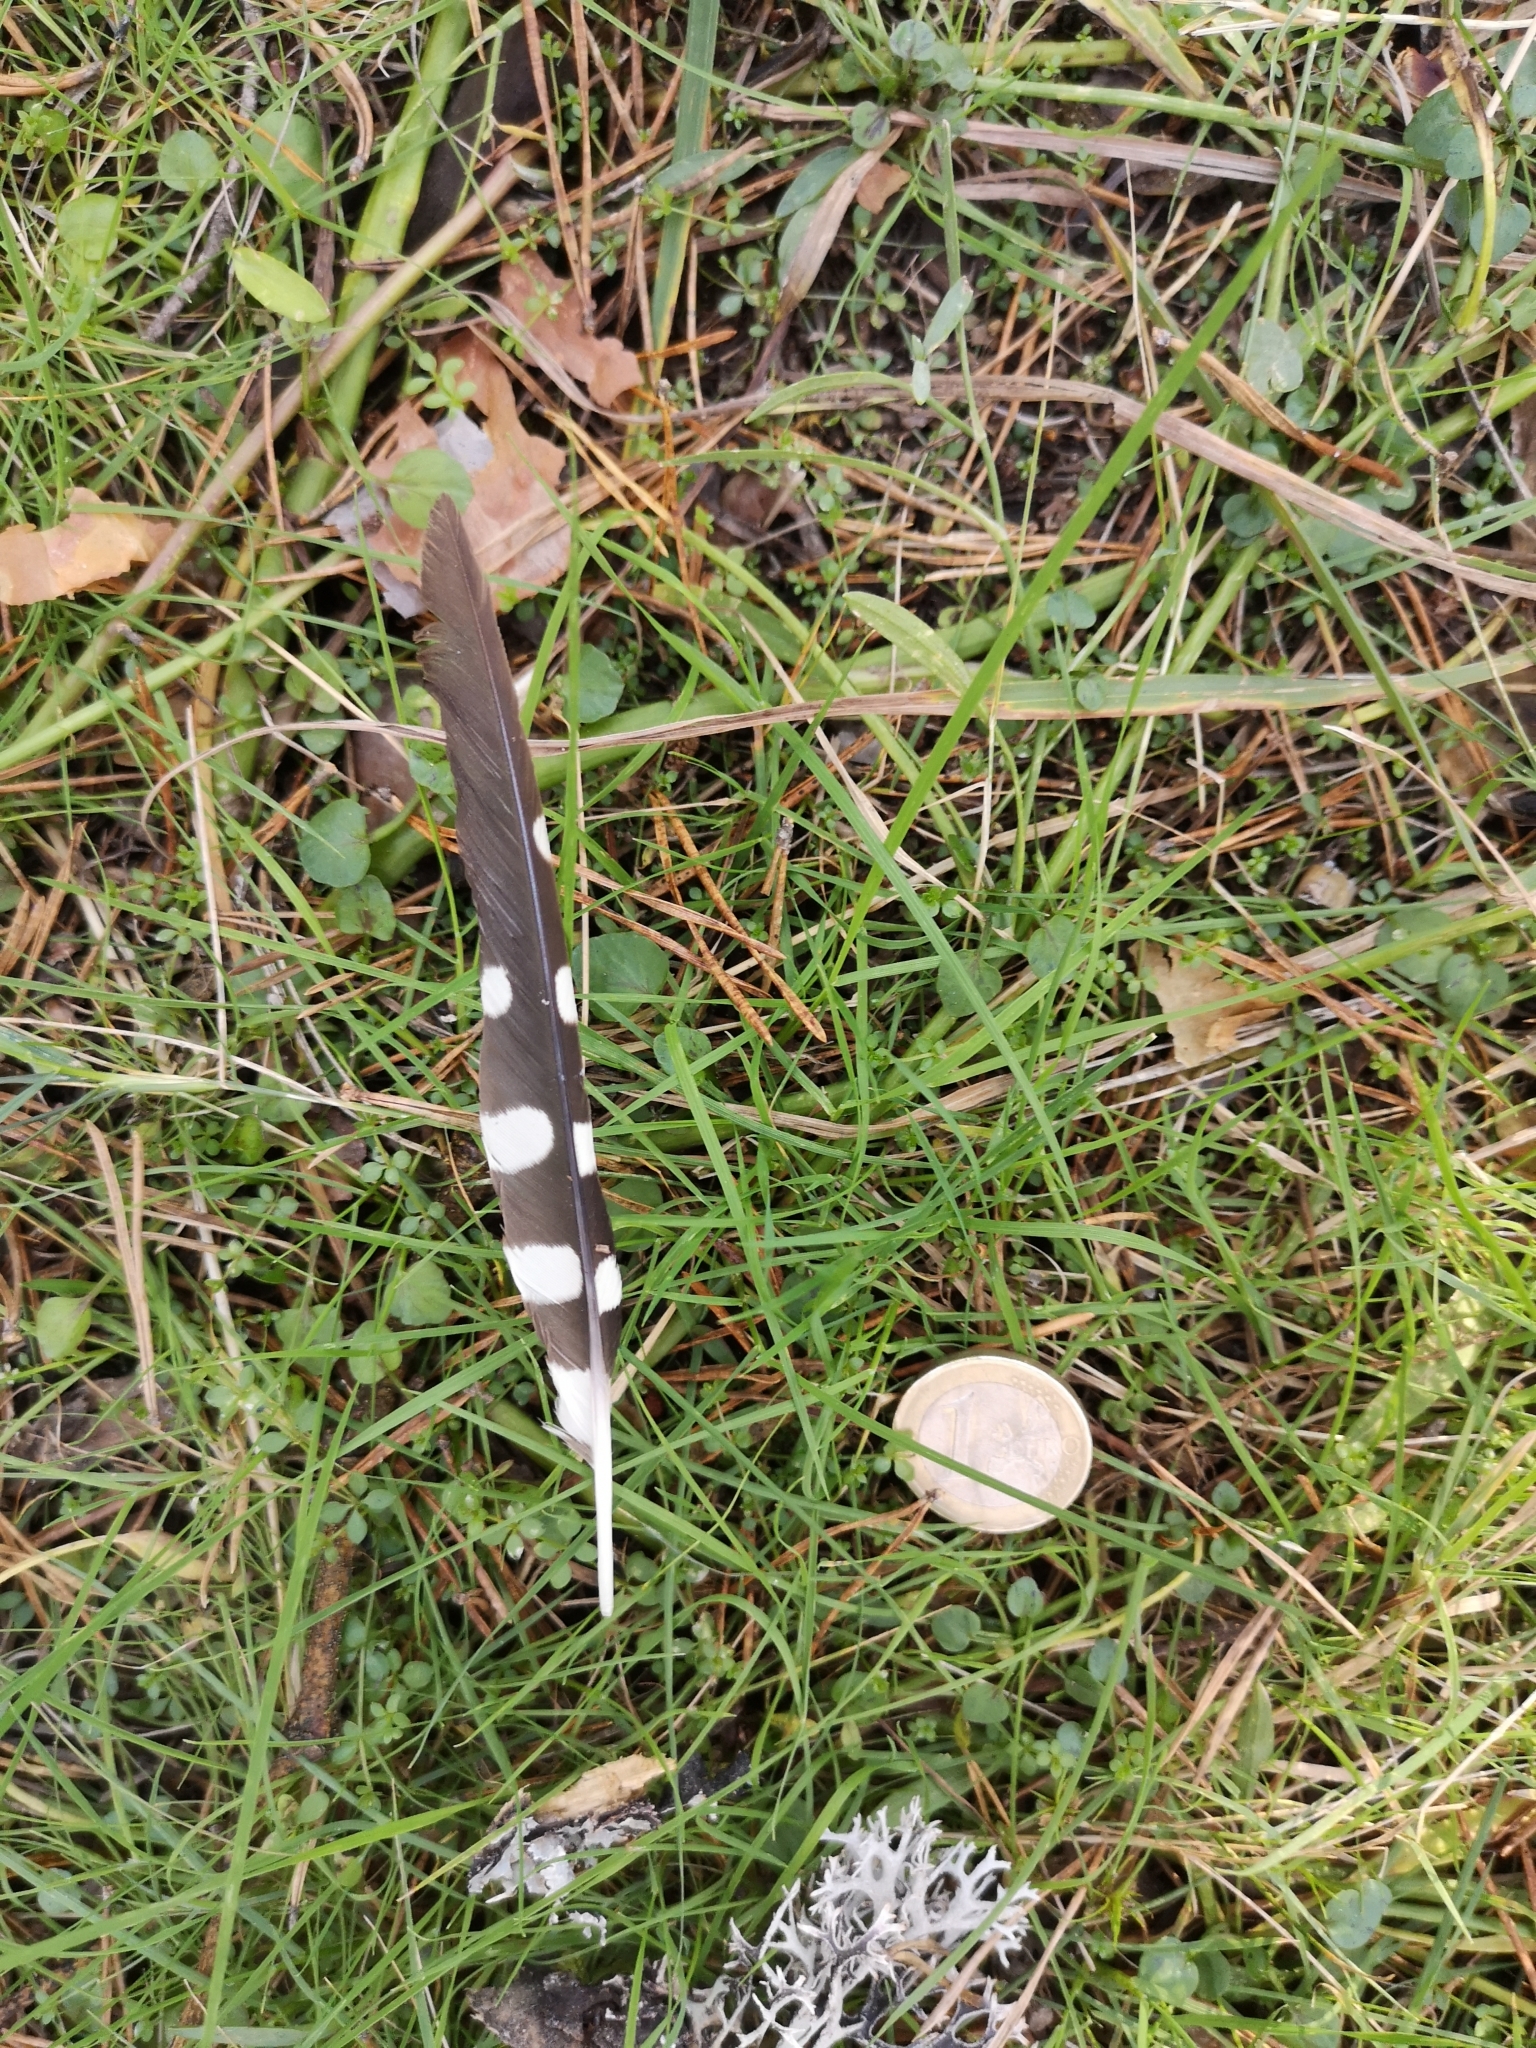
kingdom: Animalia
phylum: Chordata
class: Aves
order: Piciformes
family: Picidae
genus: Dendrocopos
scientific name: Dendrocopos major
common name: Great spotted woodpecker
